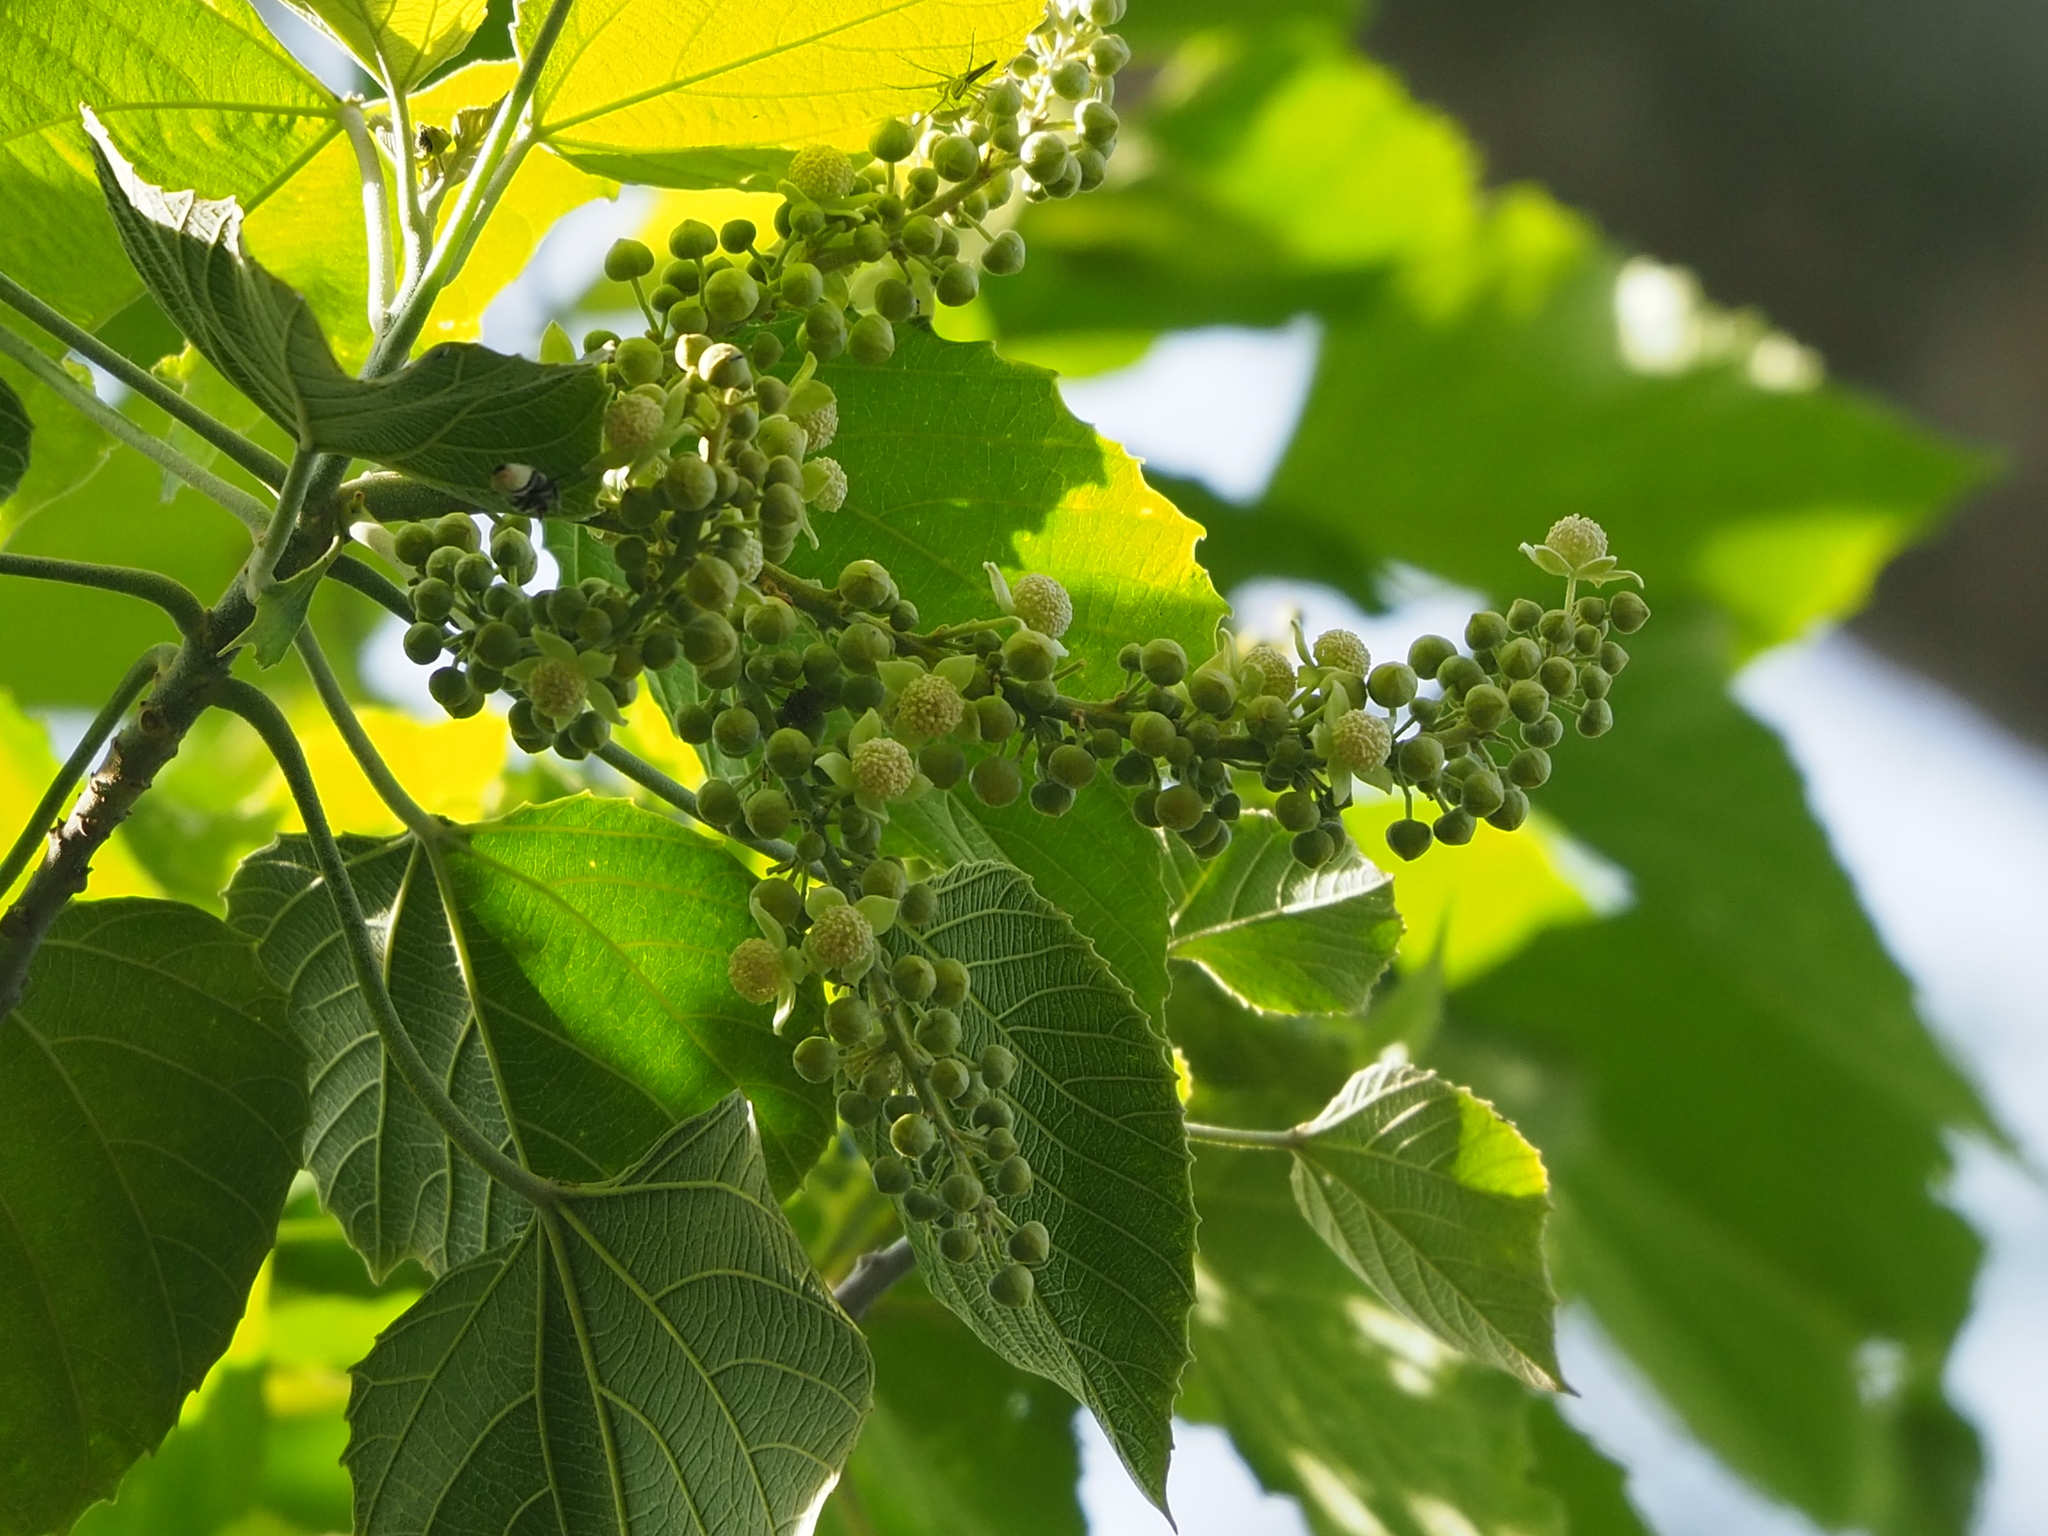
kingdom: Plantae
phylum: Tracheophyta
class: Magnoliopsida
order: Malpighiales
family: Euphorbiaceae
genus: Melanolepis
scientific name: Melanolepis multiglandulosa
